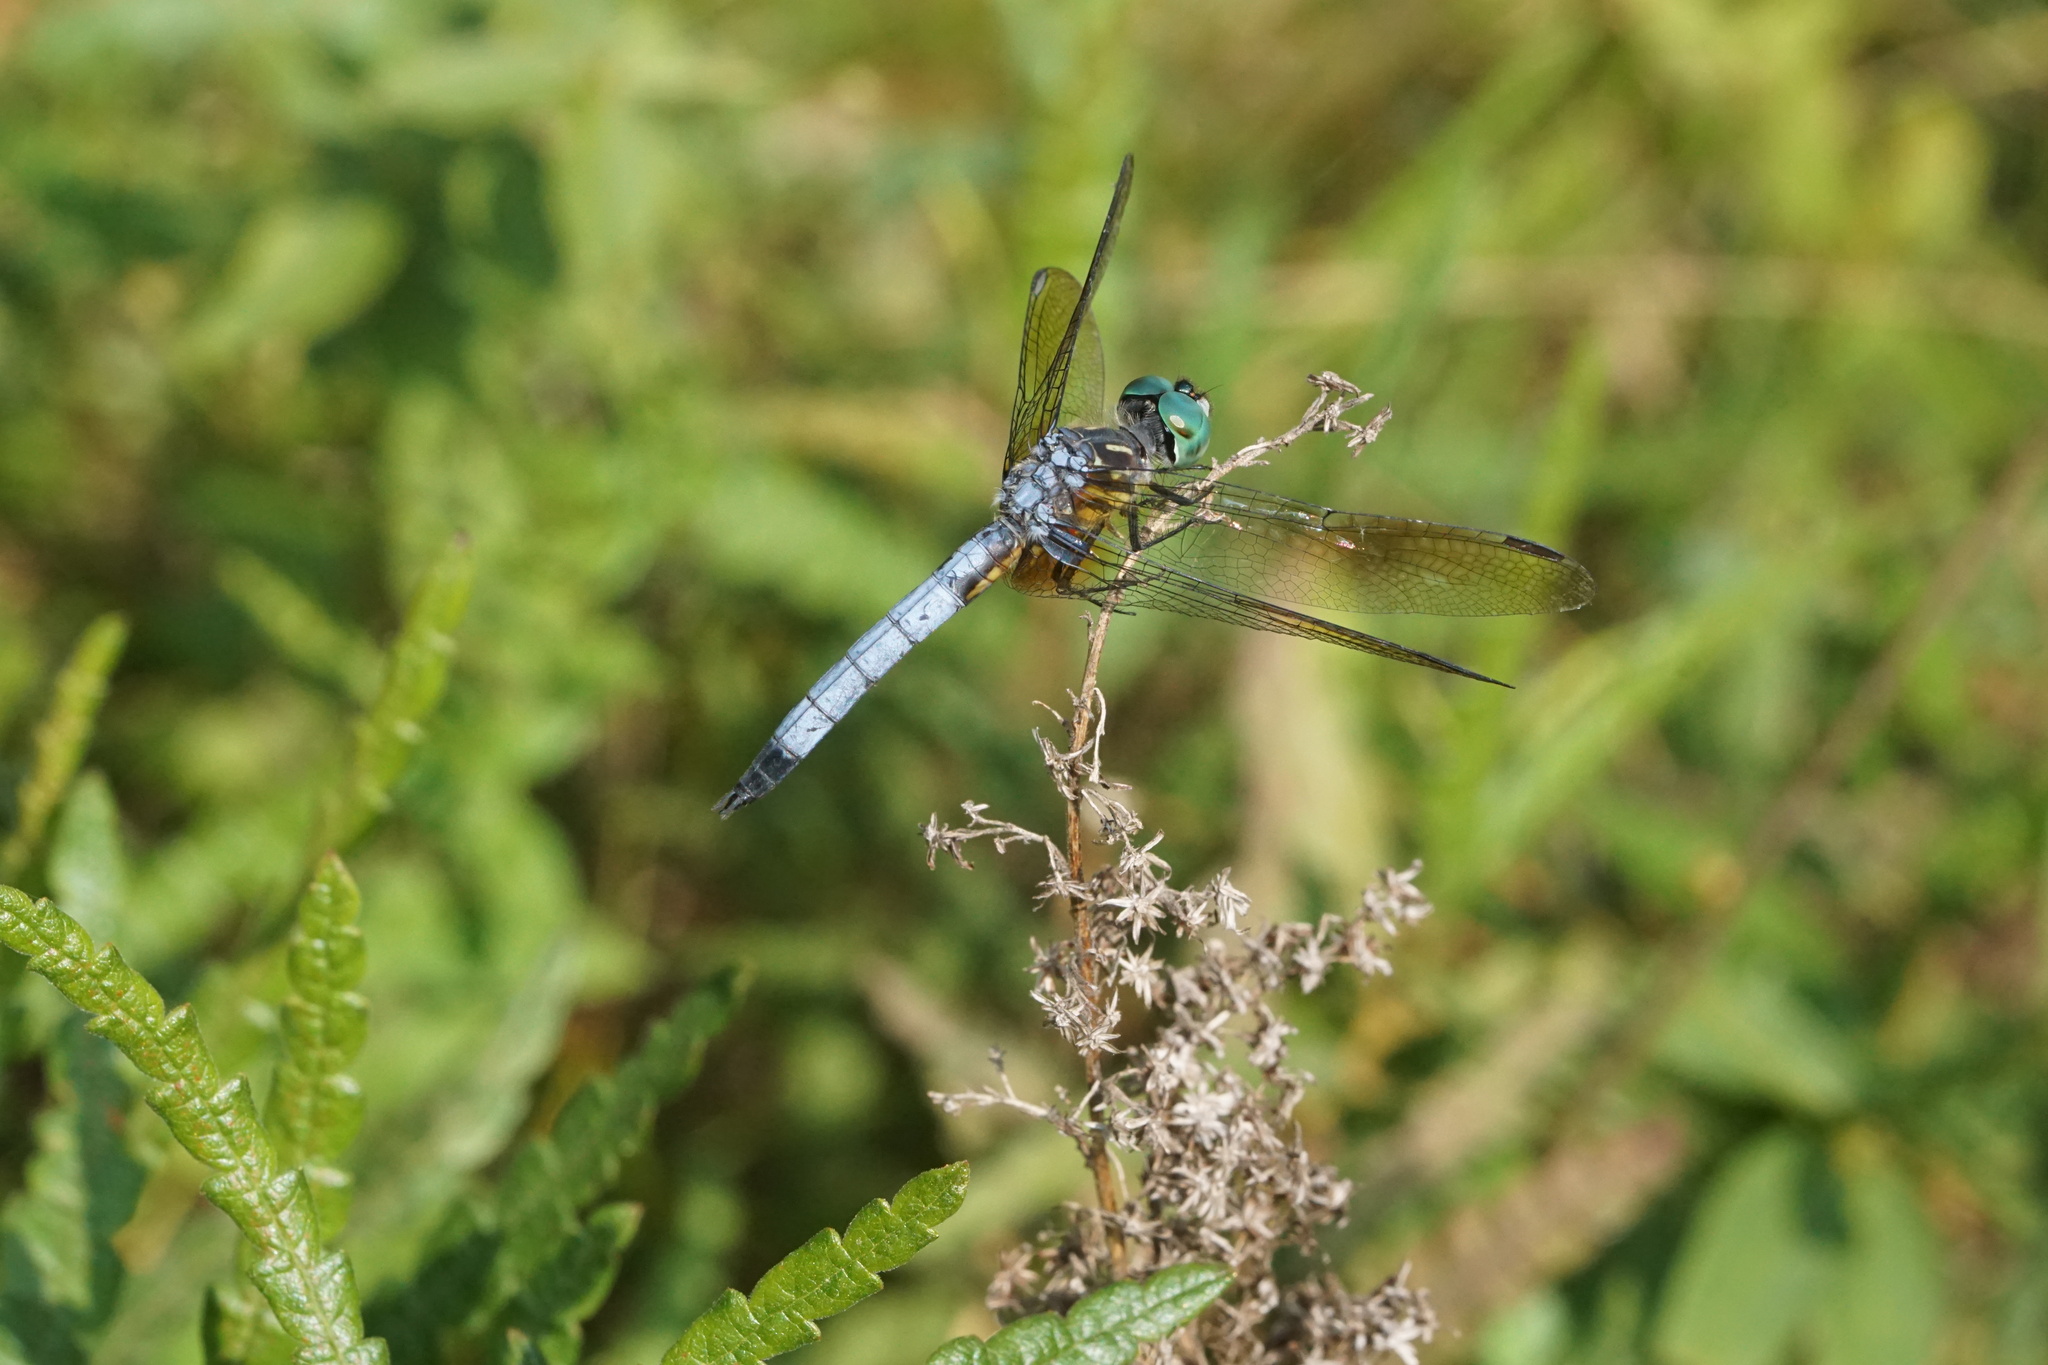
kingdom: Animalia
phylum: Arthropoda
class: Insecta
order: Odonata
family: Libellulidae
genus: Pachydiplax
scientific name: Pachydiplax longipennis
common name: Blue dasher
